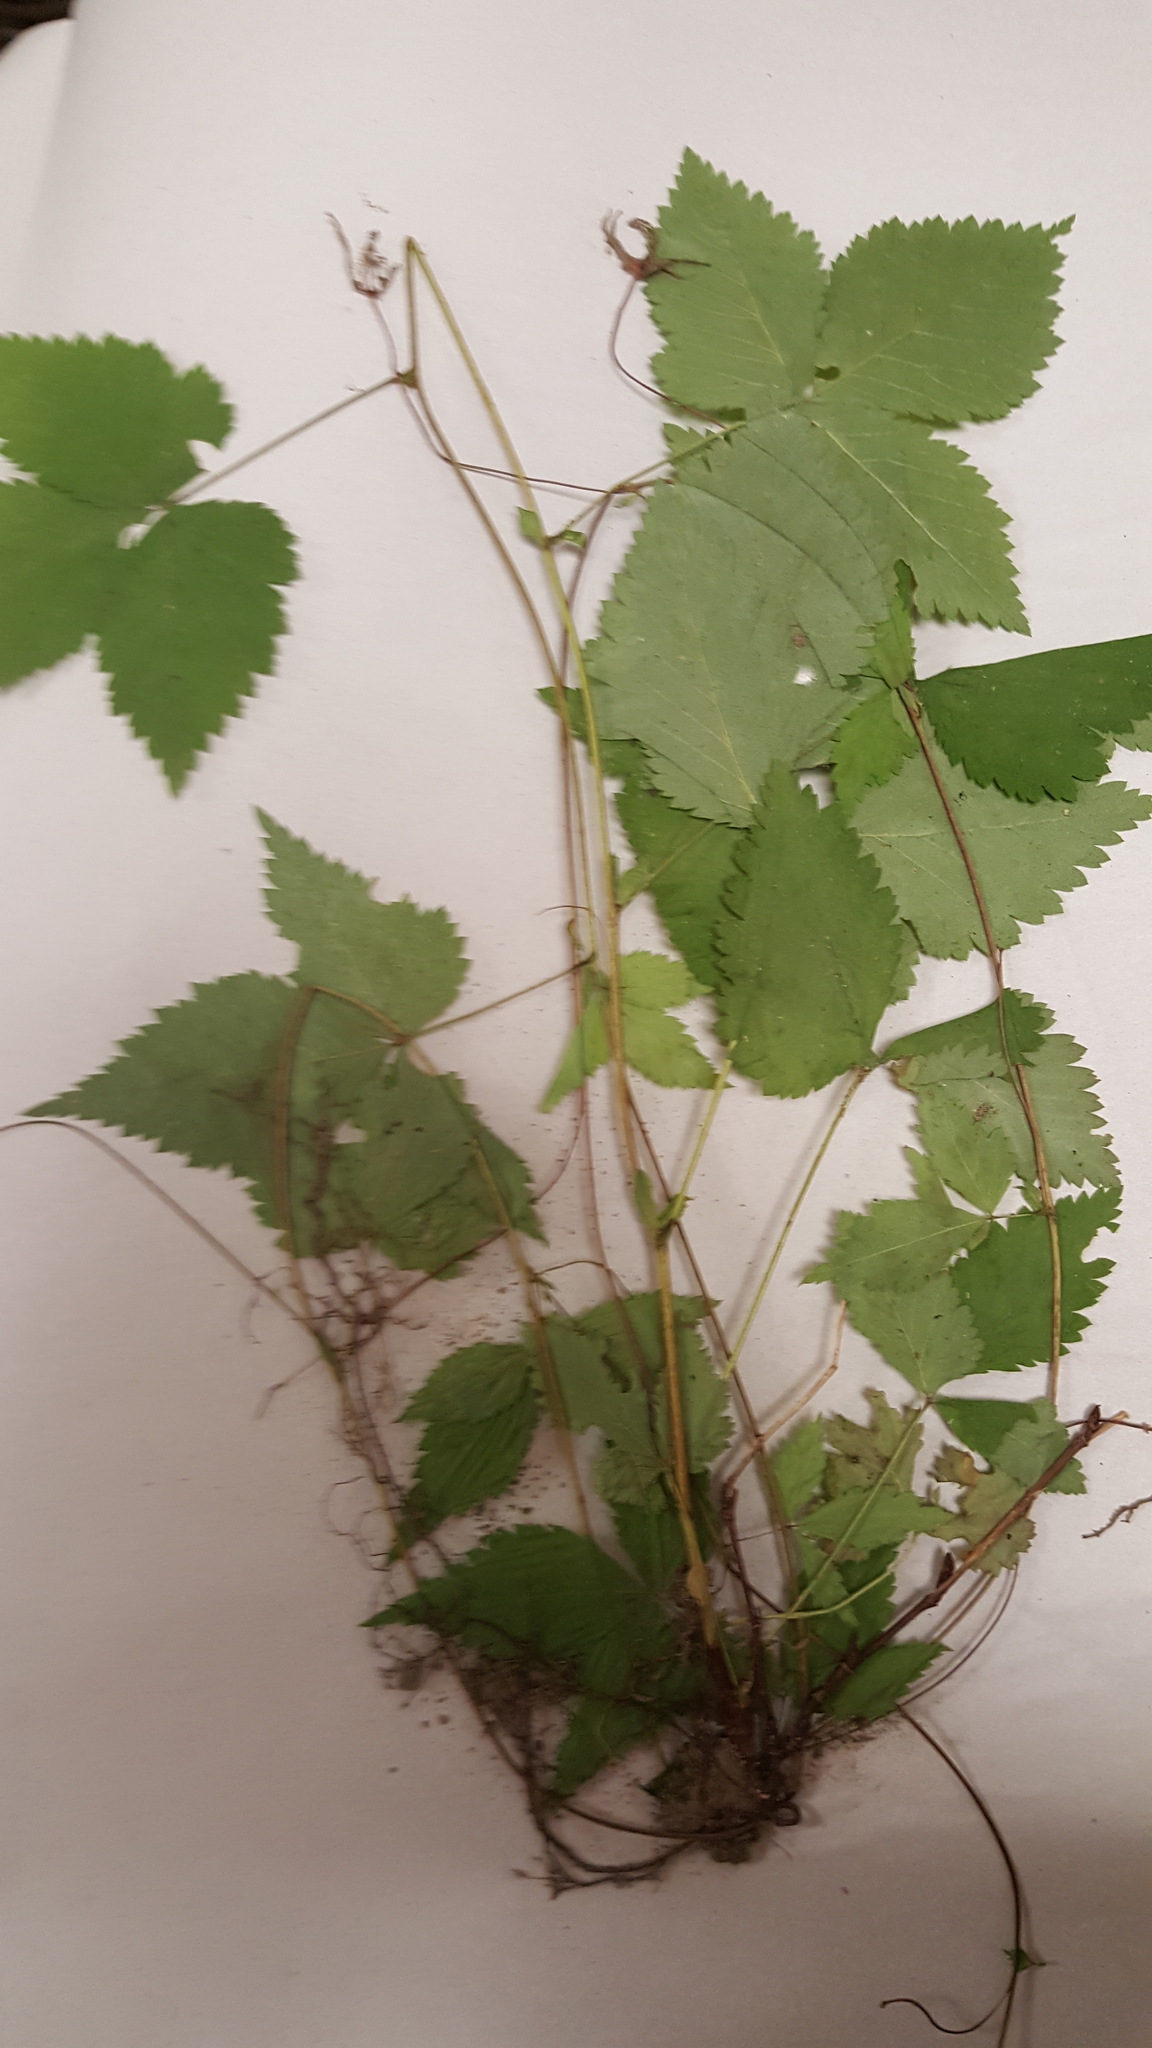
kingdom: Plantae
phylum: Tracheophyta
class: Magnoliopsida
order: Rosales
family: Rosaceae
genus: Rubus
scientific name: Rubus pubescens
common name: Dwarf raspberry
